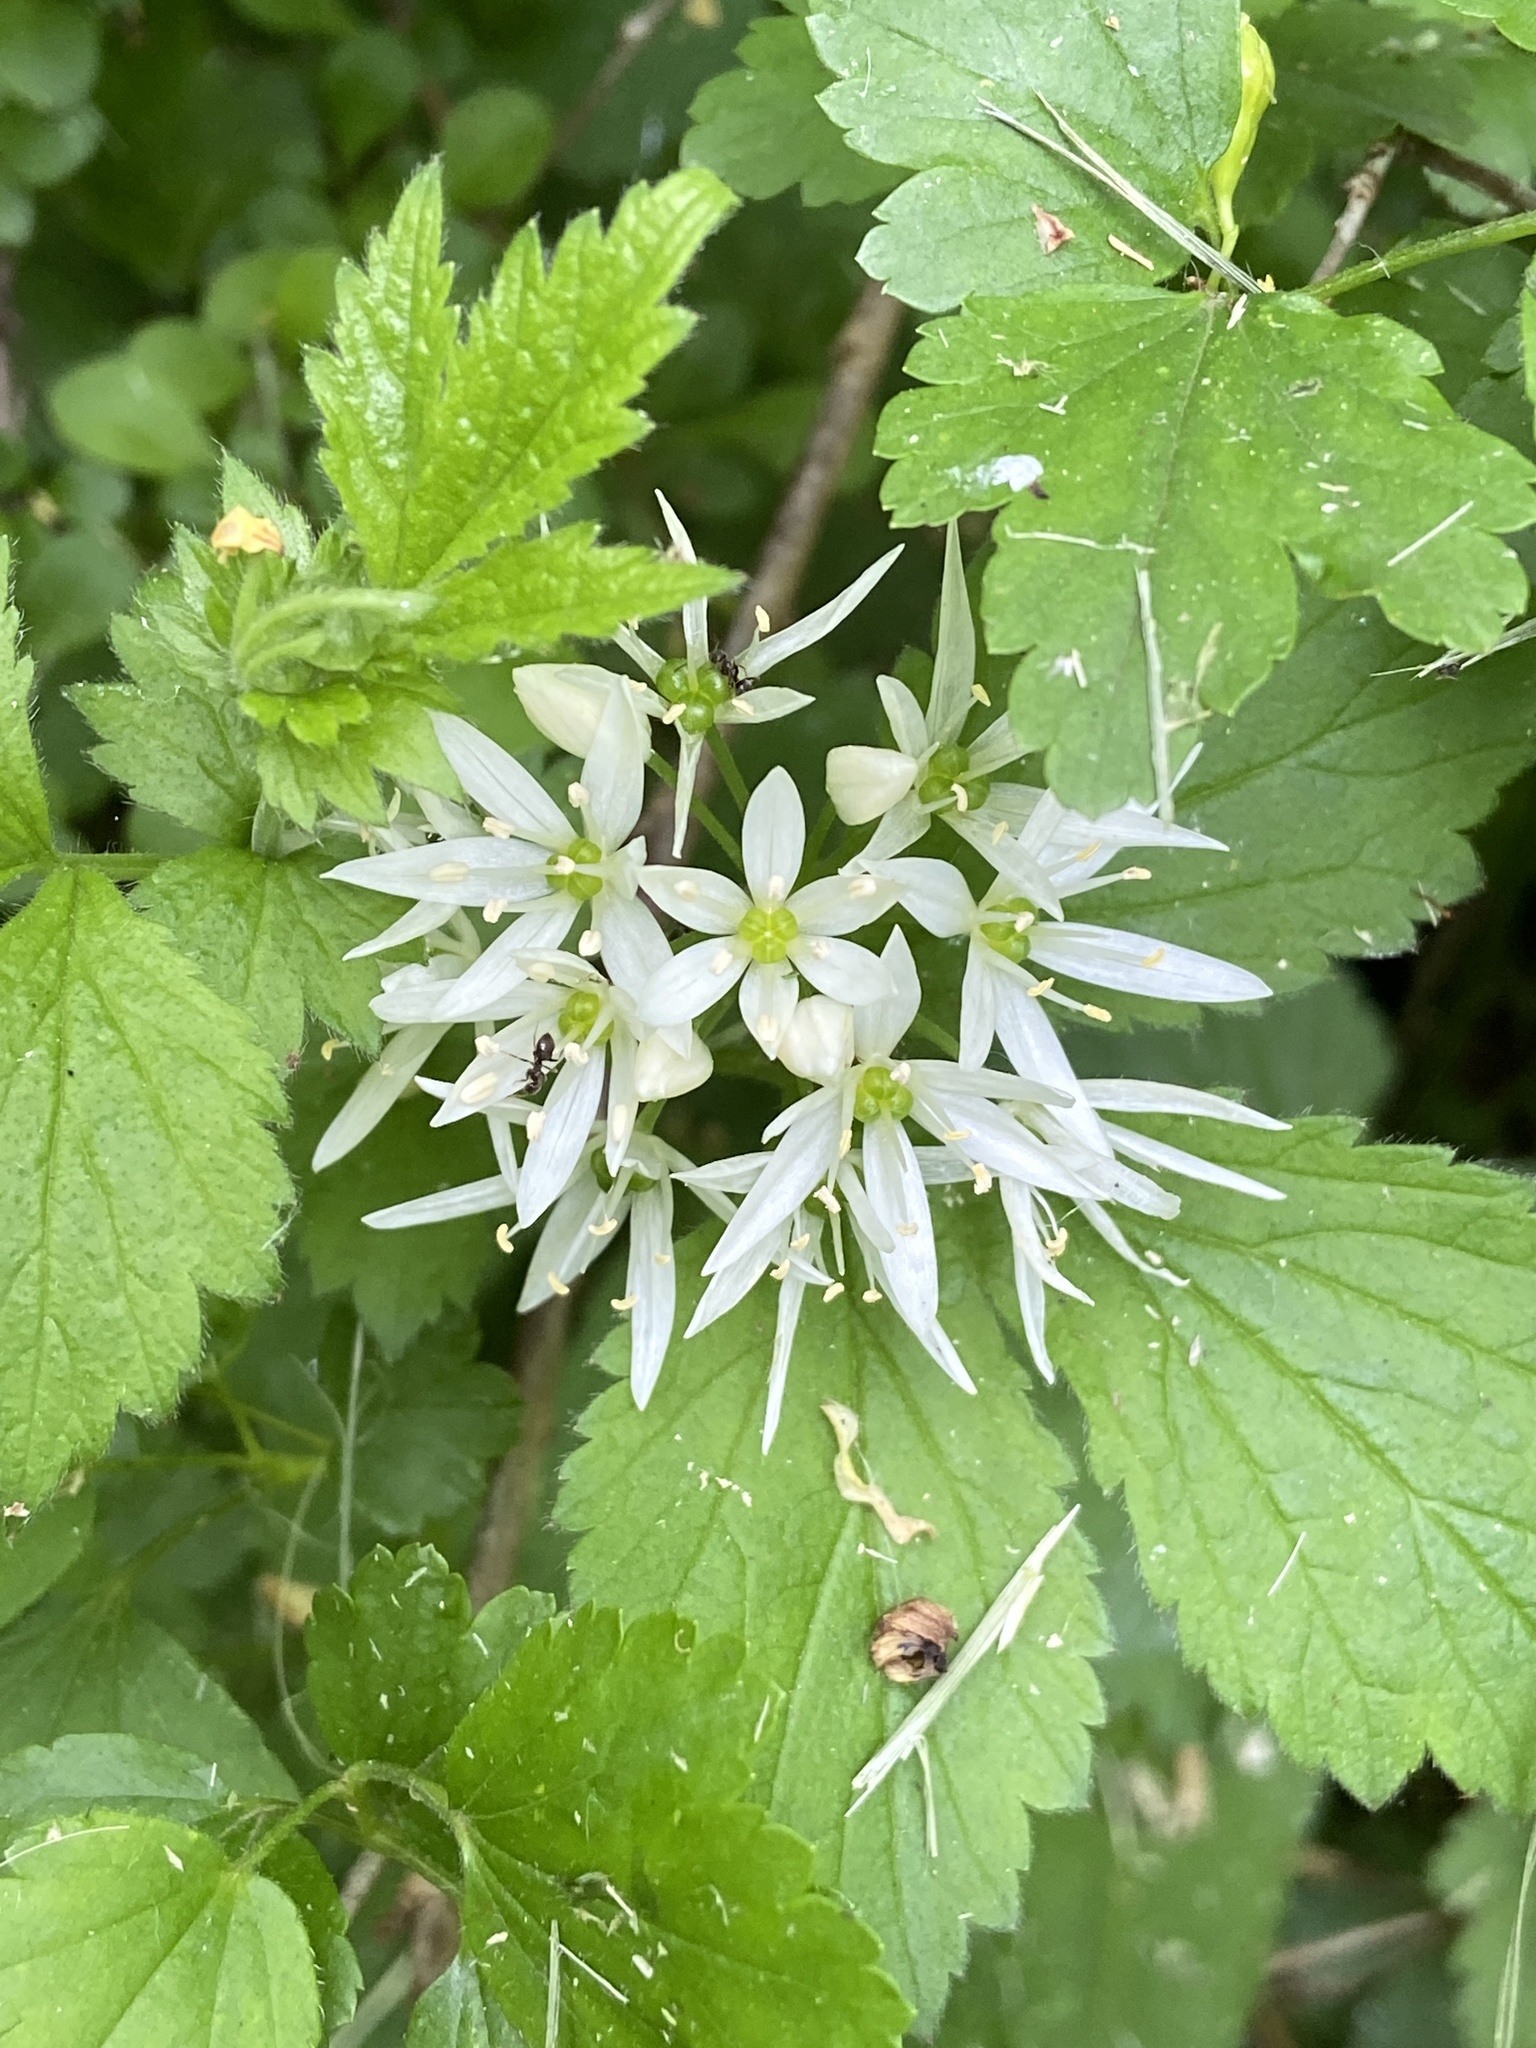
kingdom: Plantae
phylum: Tracheophyta
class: Liliopsida
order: Asparagales
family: Amaryllidaceae
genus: Allium
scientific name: Allium ursinum
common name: Ramsons
